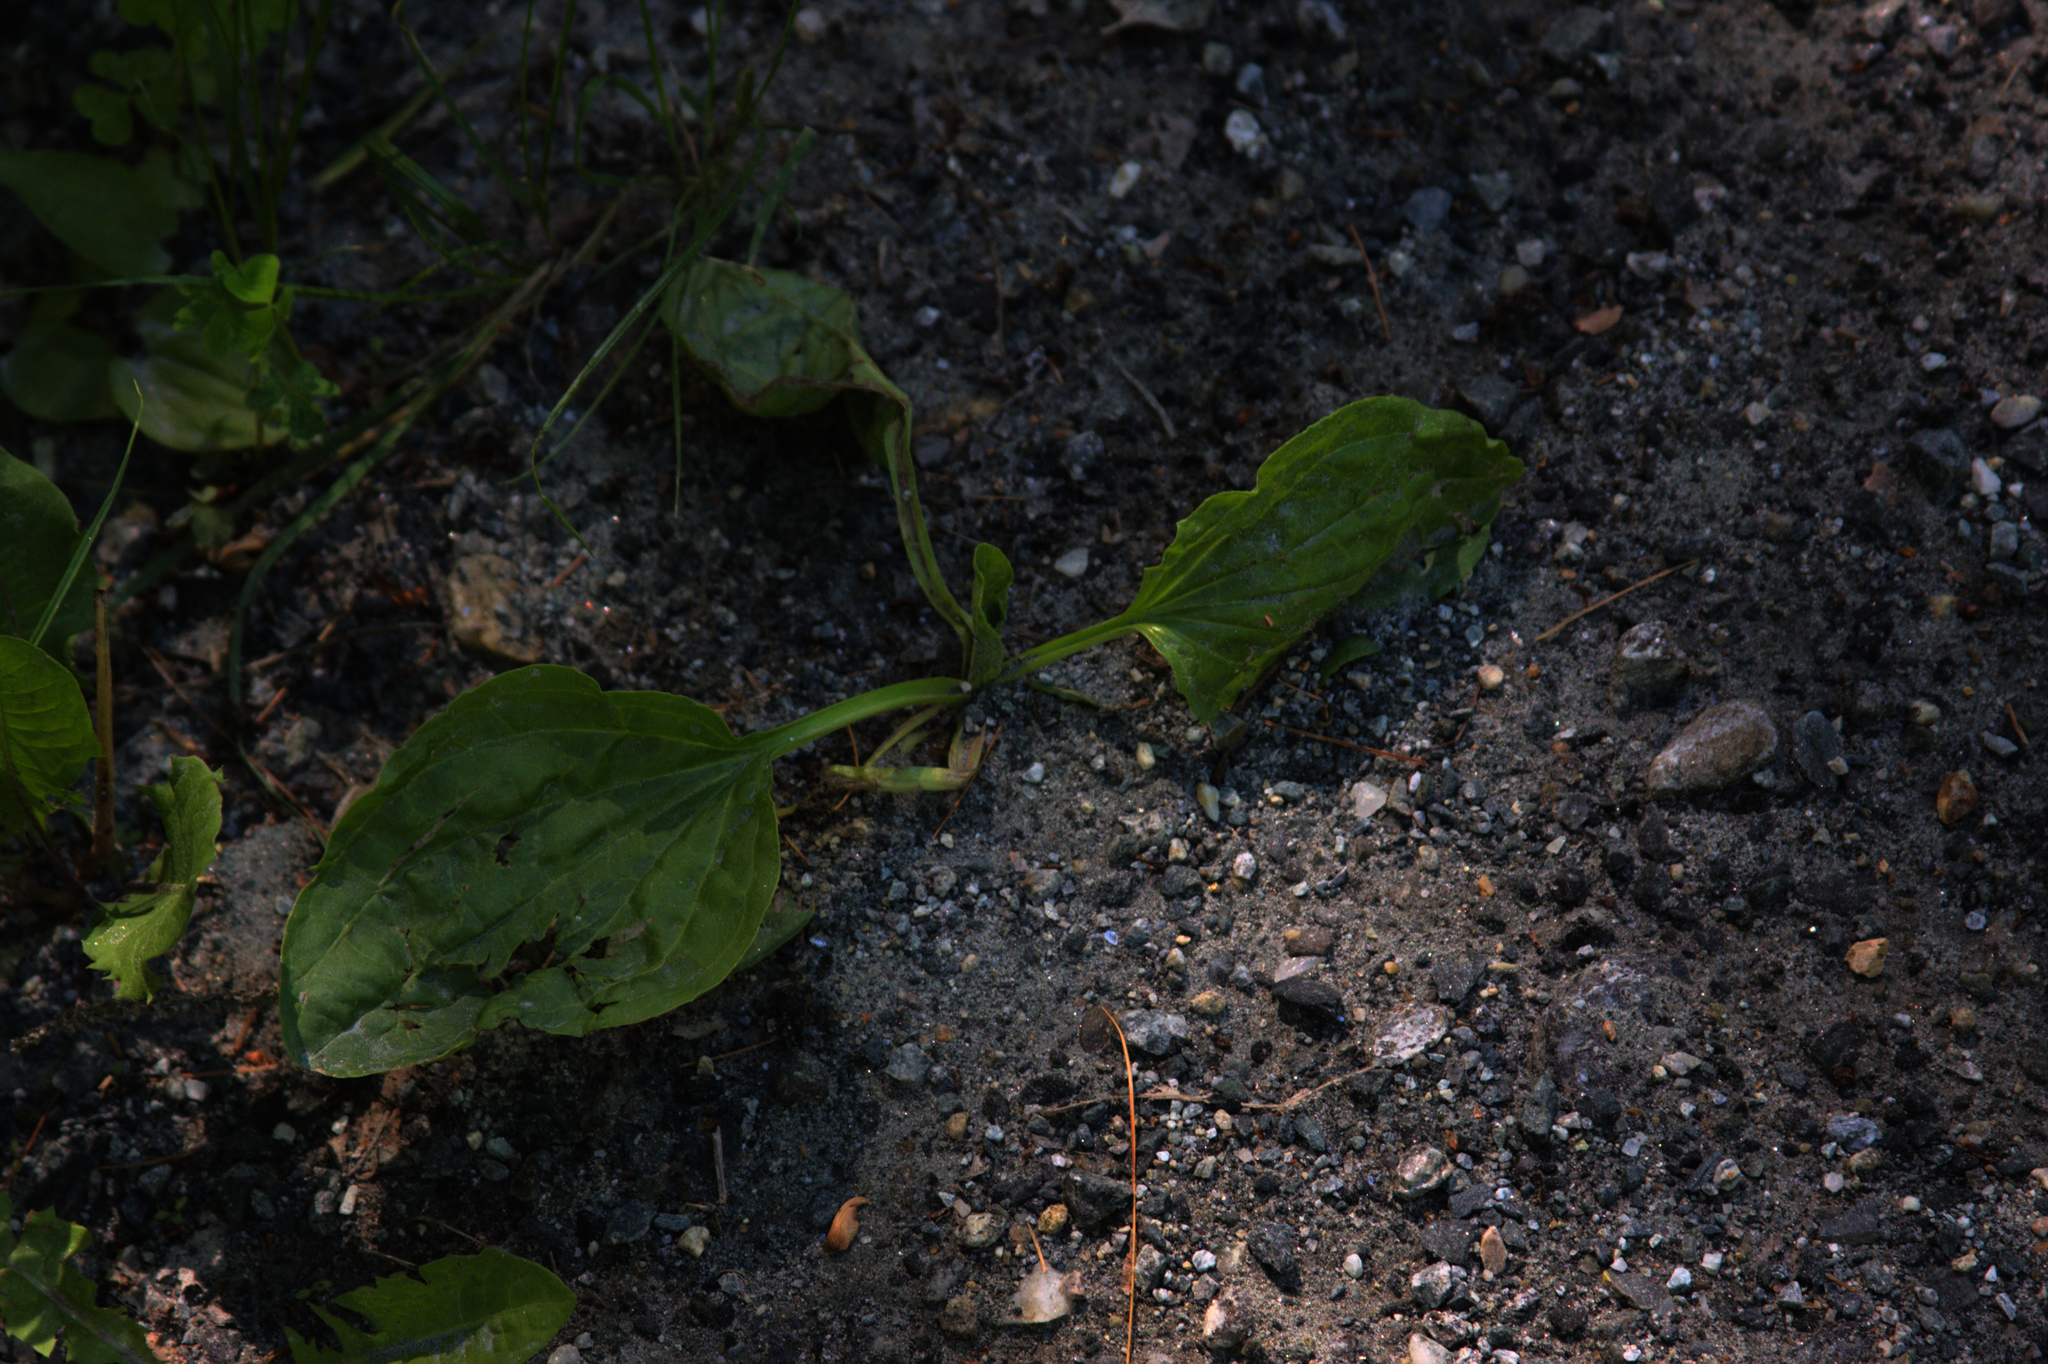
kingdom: Plantae
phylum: Tracheophyta
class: Magnoliopsida
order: Lamiales
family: Plantaginaceae
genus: Plantago
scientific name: Plantago major
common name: Common plantain
